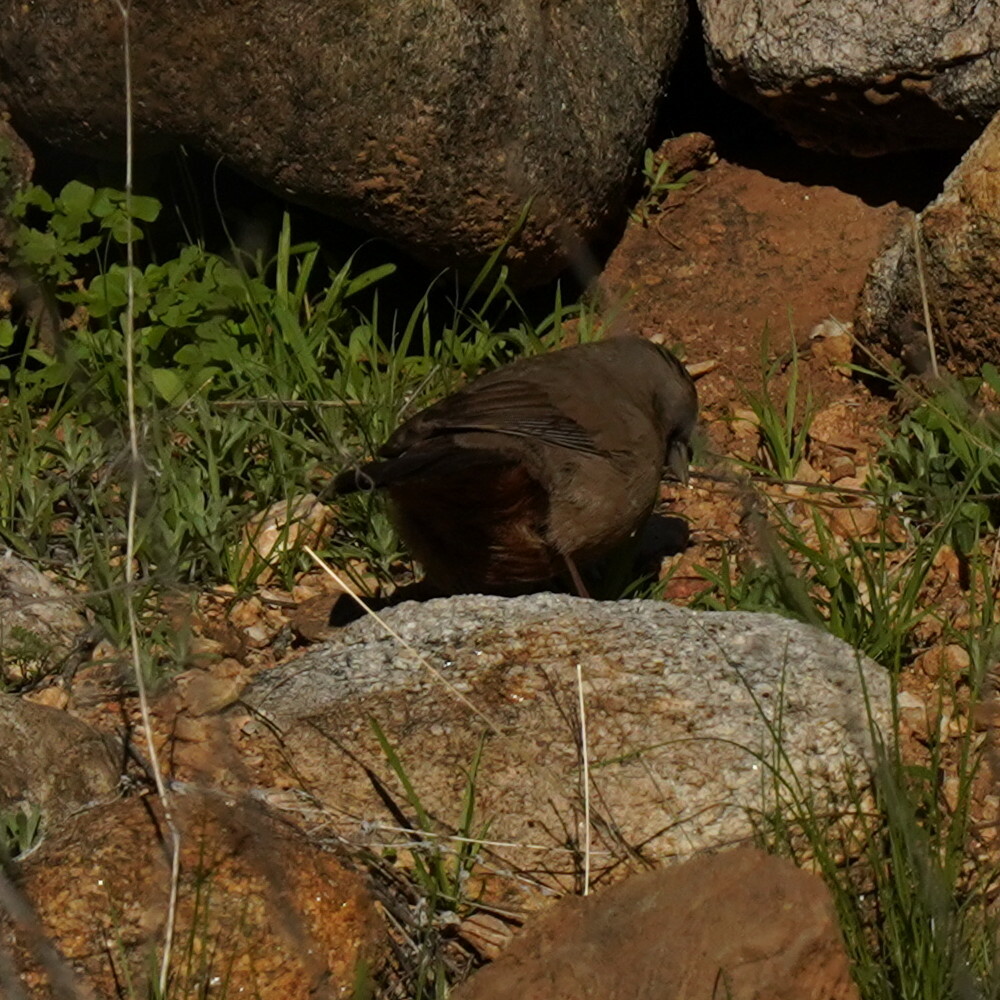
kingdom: Animalia
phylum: Chordata
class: Aves
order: Passeriformes
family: Passerellidae
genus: Melozone
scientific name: Melozone aberti
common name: Abert's towhee
